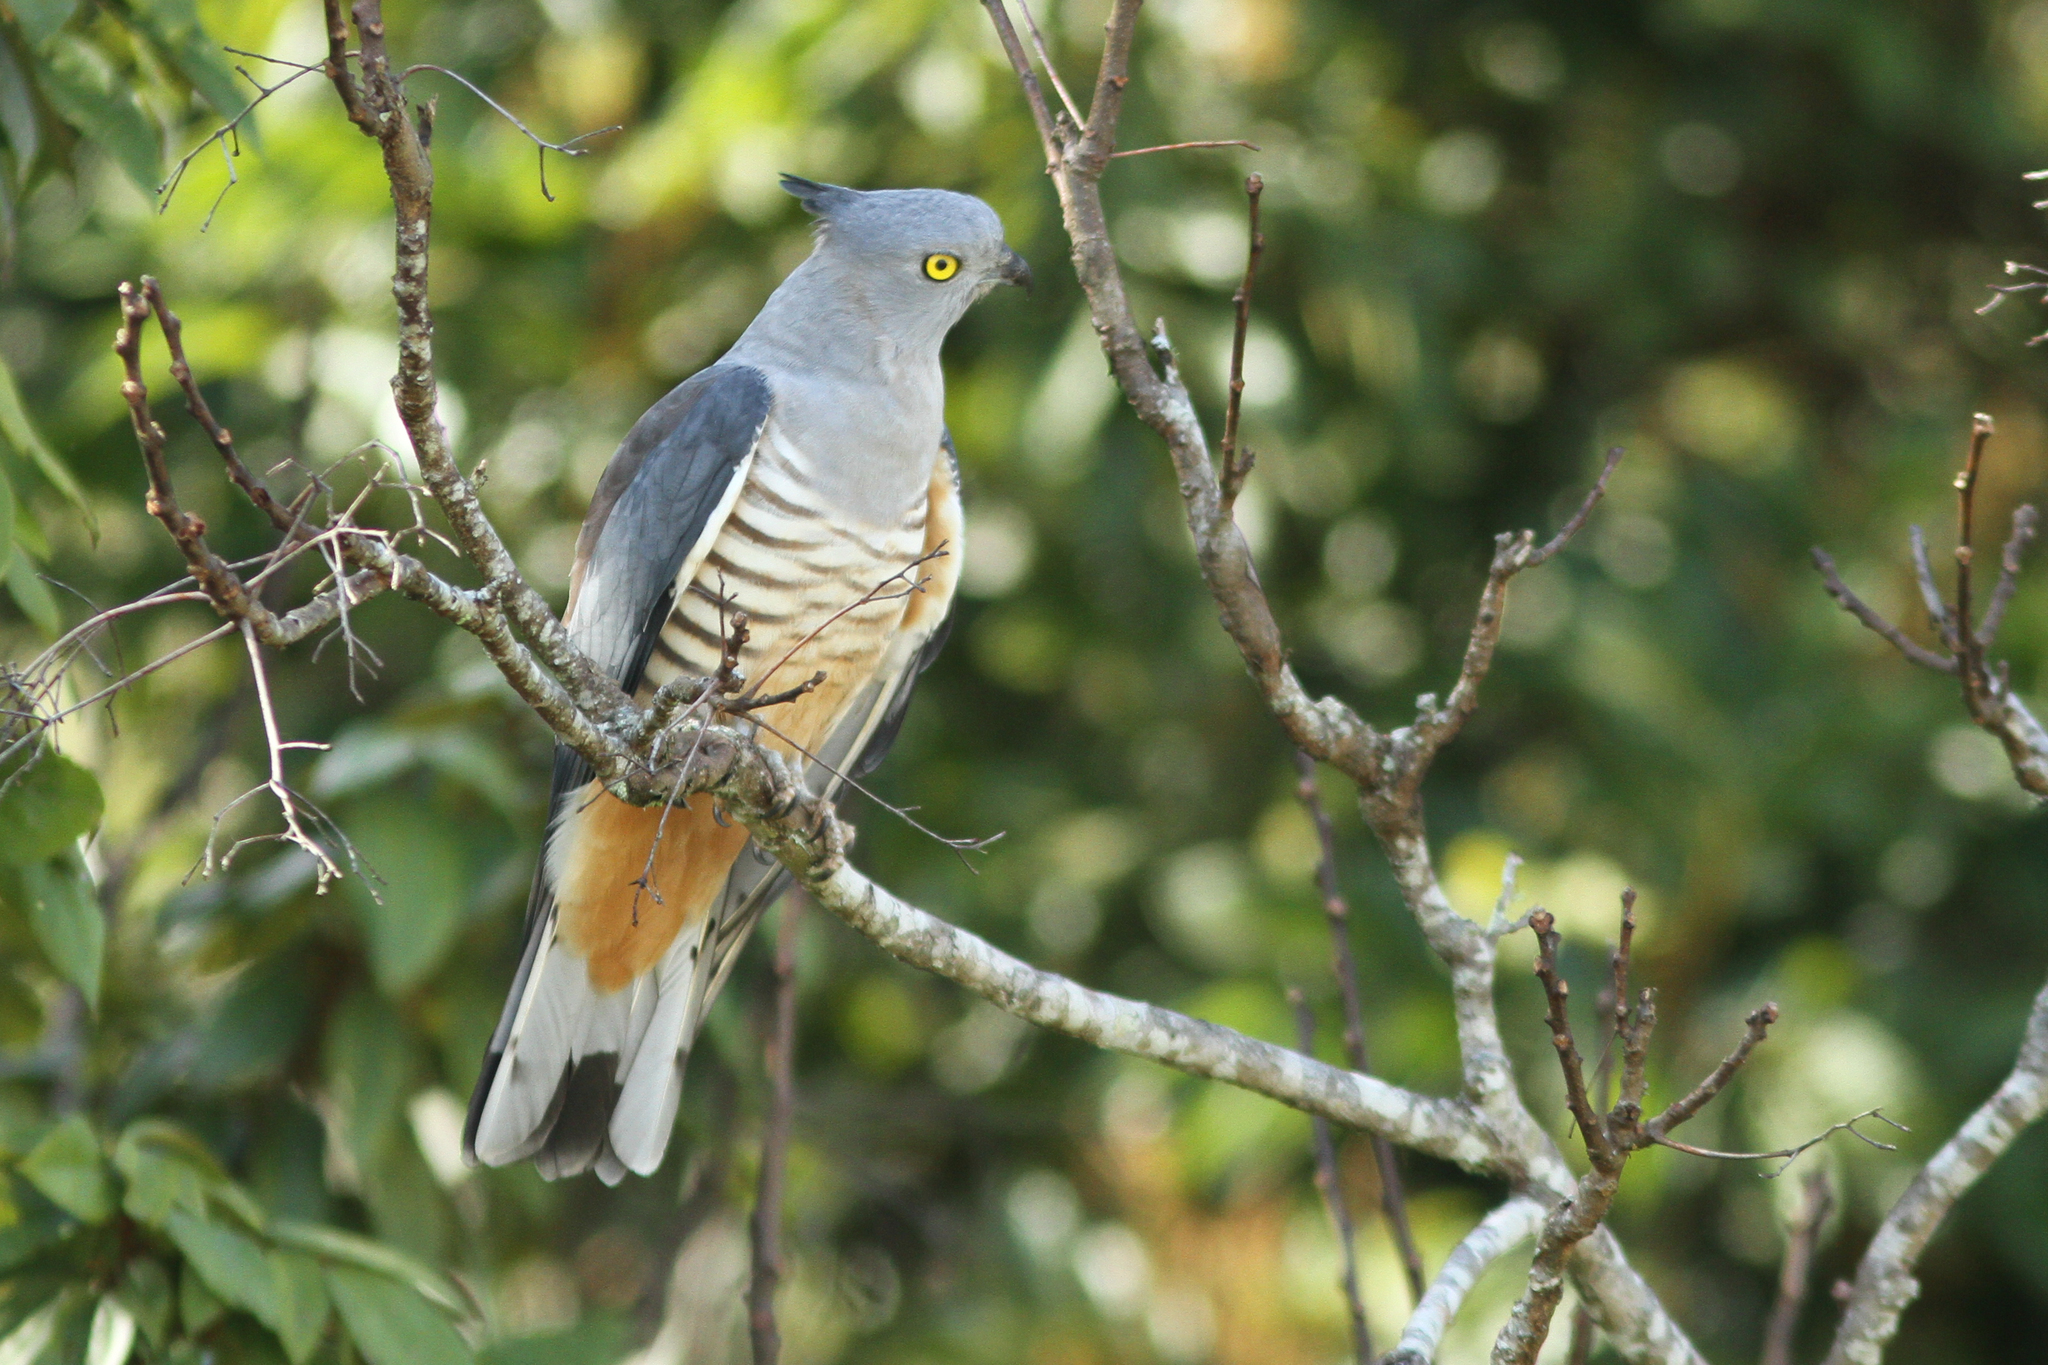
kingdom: Animalia
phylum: Chordata
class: Aves
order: Accipitriformes
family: Accipitridae
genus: Aviceda
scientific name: Aviceda subcristata
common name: Pacific baza
